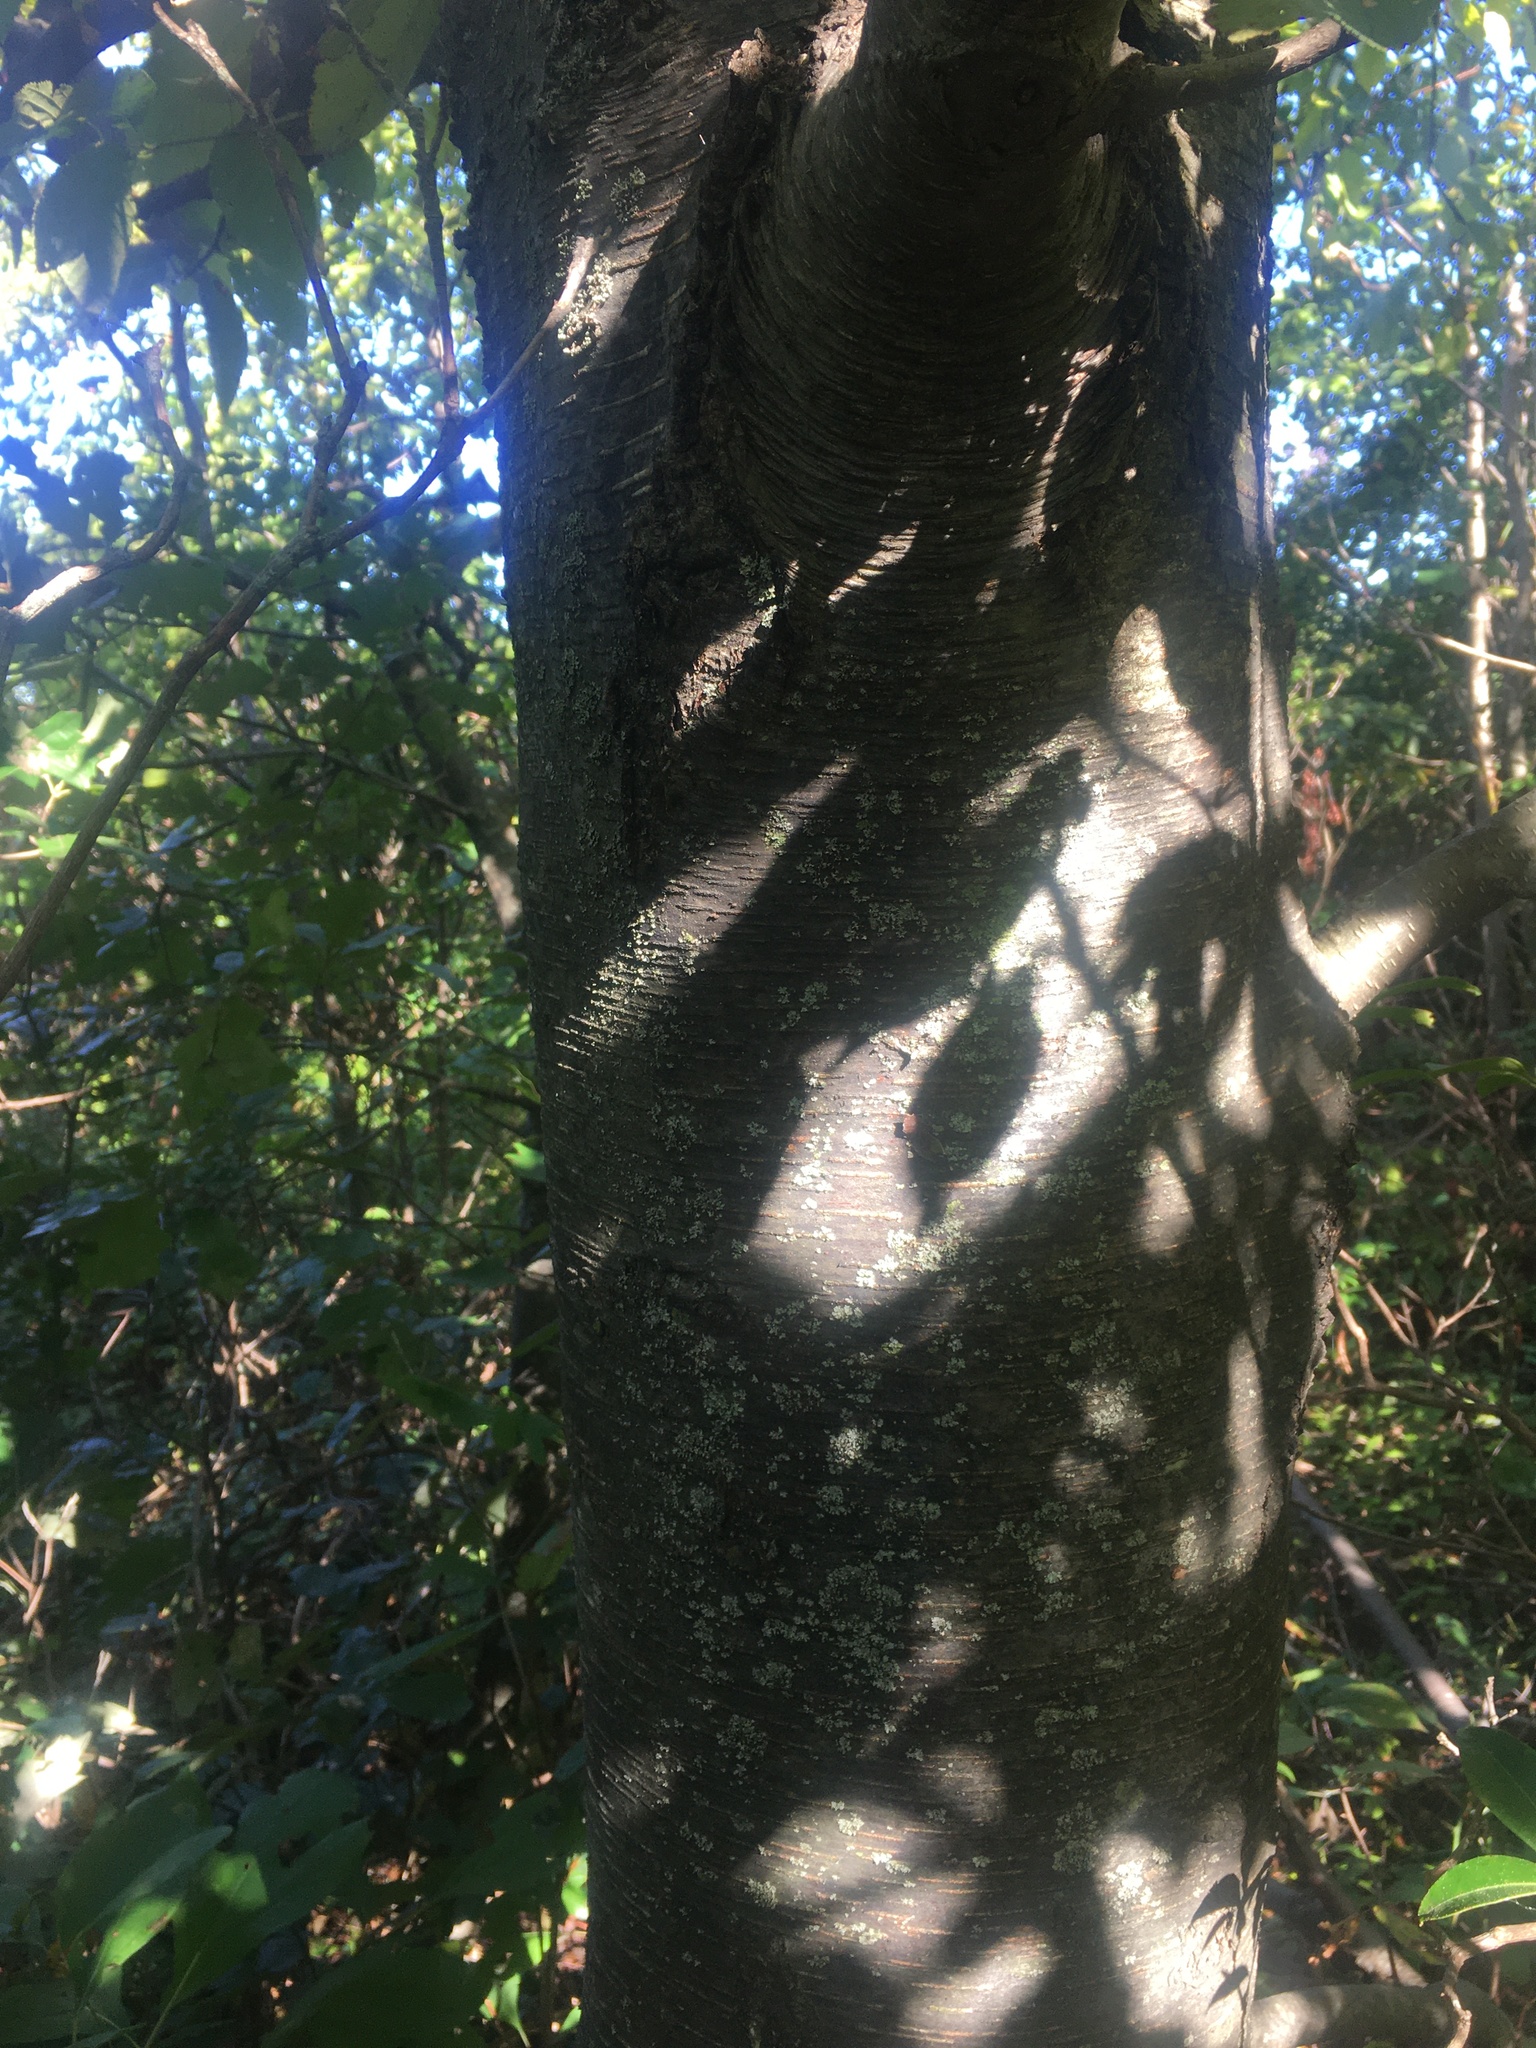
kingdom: Plantae
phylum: Tracheophyta
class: Magnoliopsida
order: Fagales
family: Betulaceae
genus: Betula
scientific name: Betula lenta
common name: Black birch
